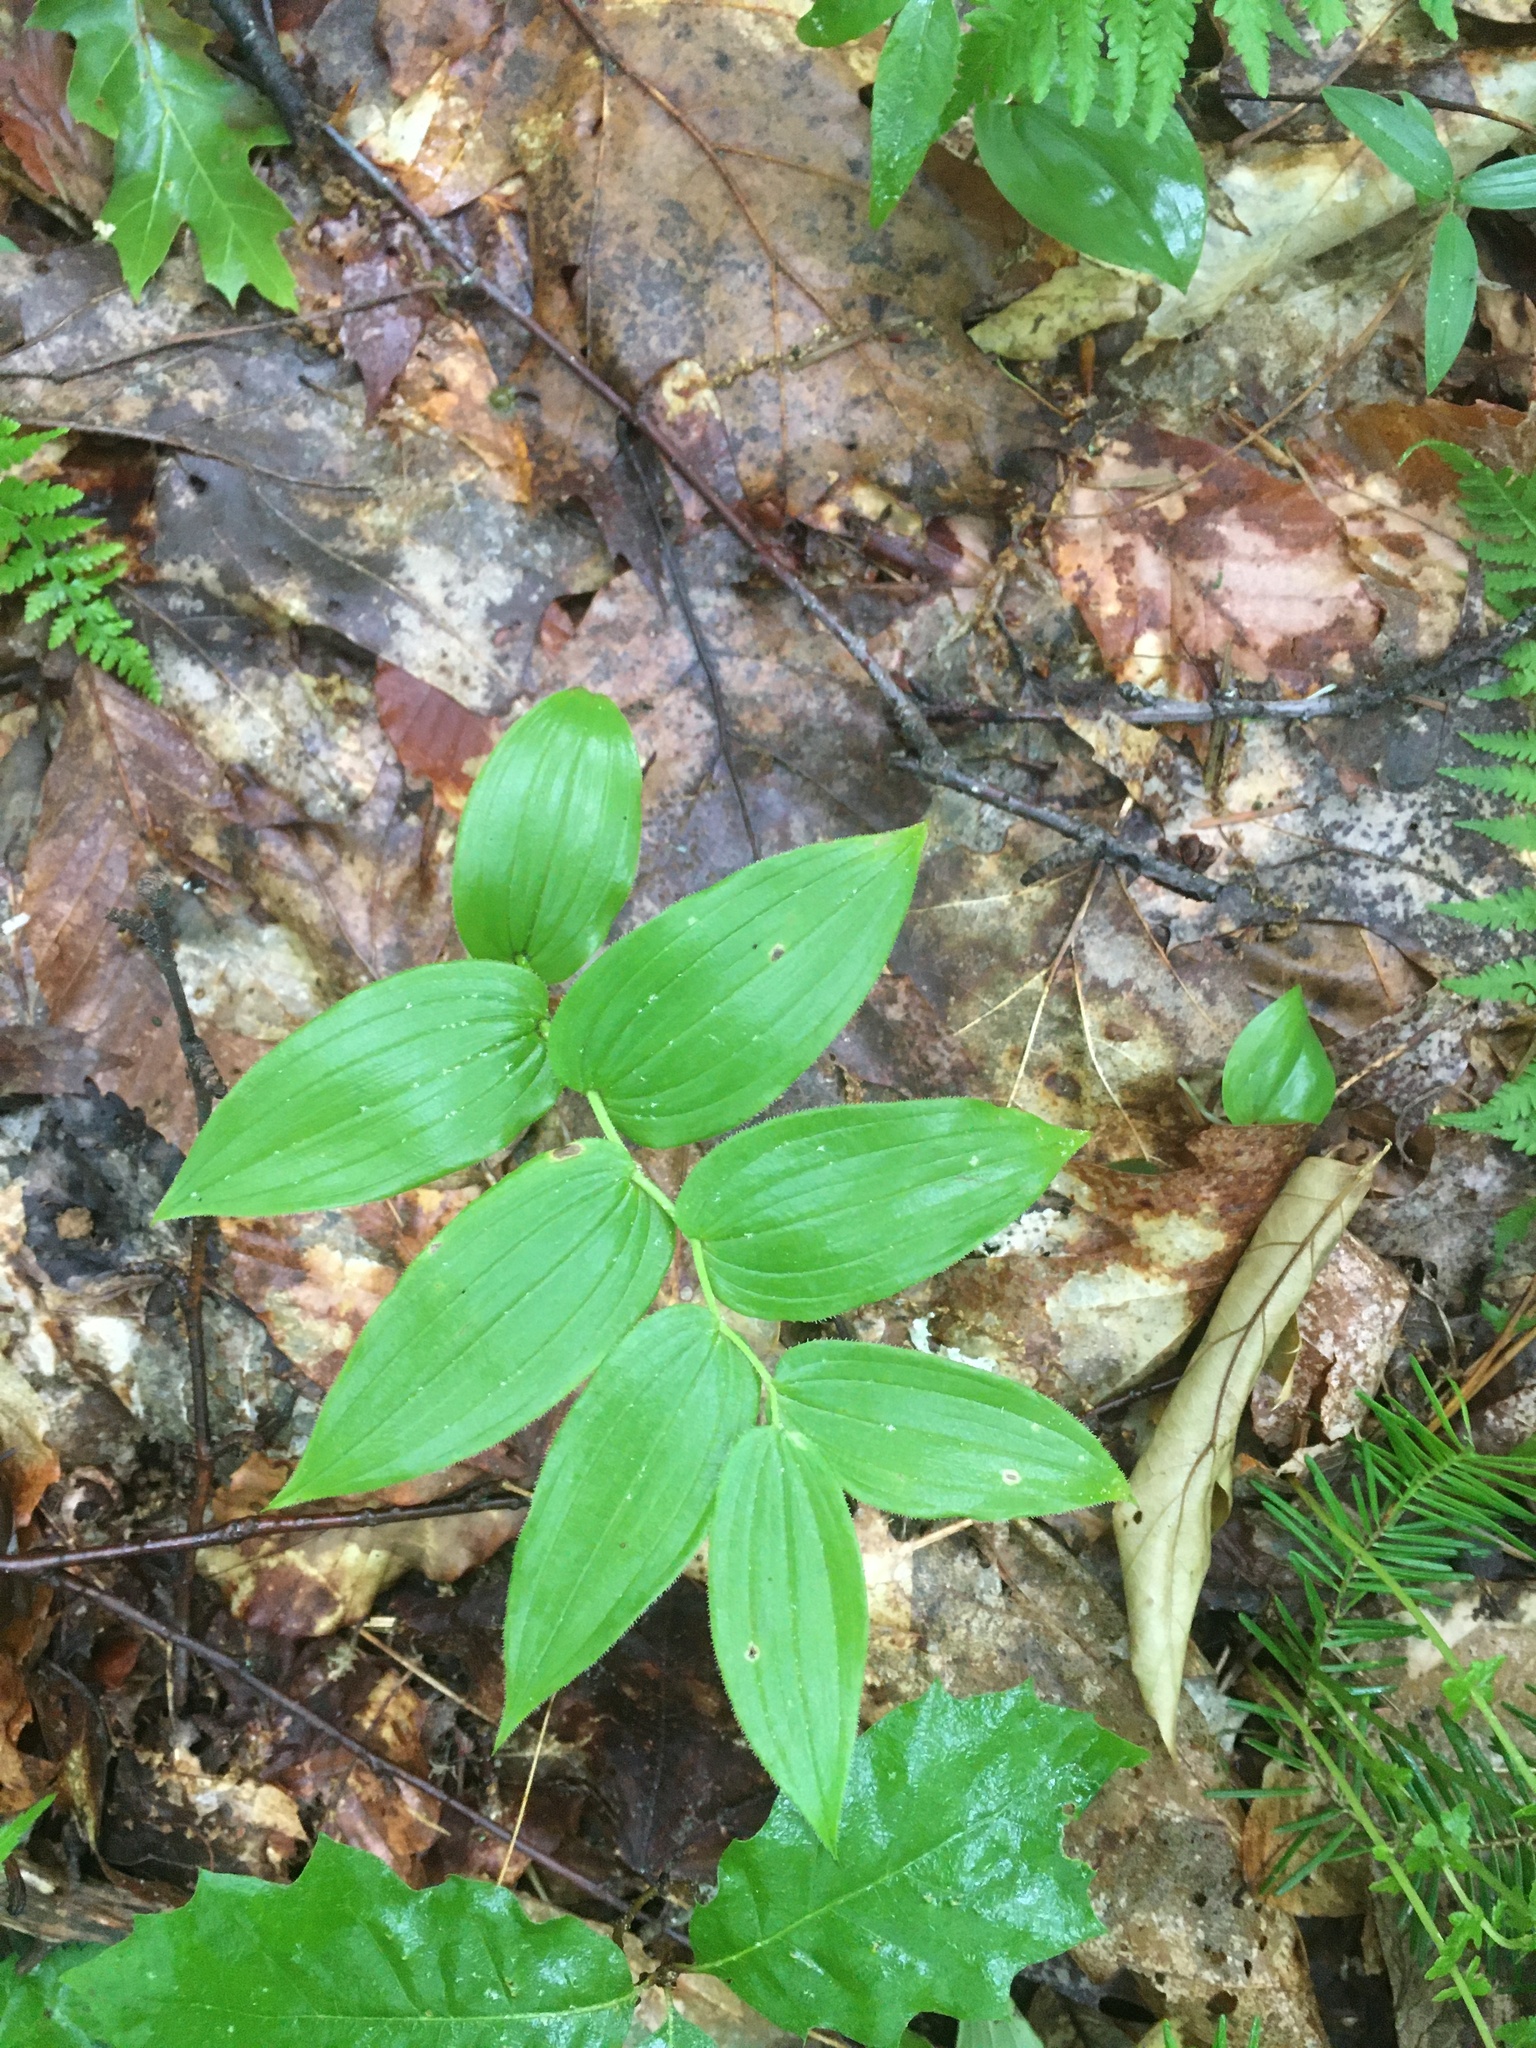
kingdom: Plantae
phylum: Tracheophyta
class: Liliopsida
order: Liliales
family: Liliaceae
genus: Streptopus
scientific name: Streptopus lanceolatus
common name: Rose mandarin
